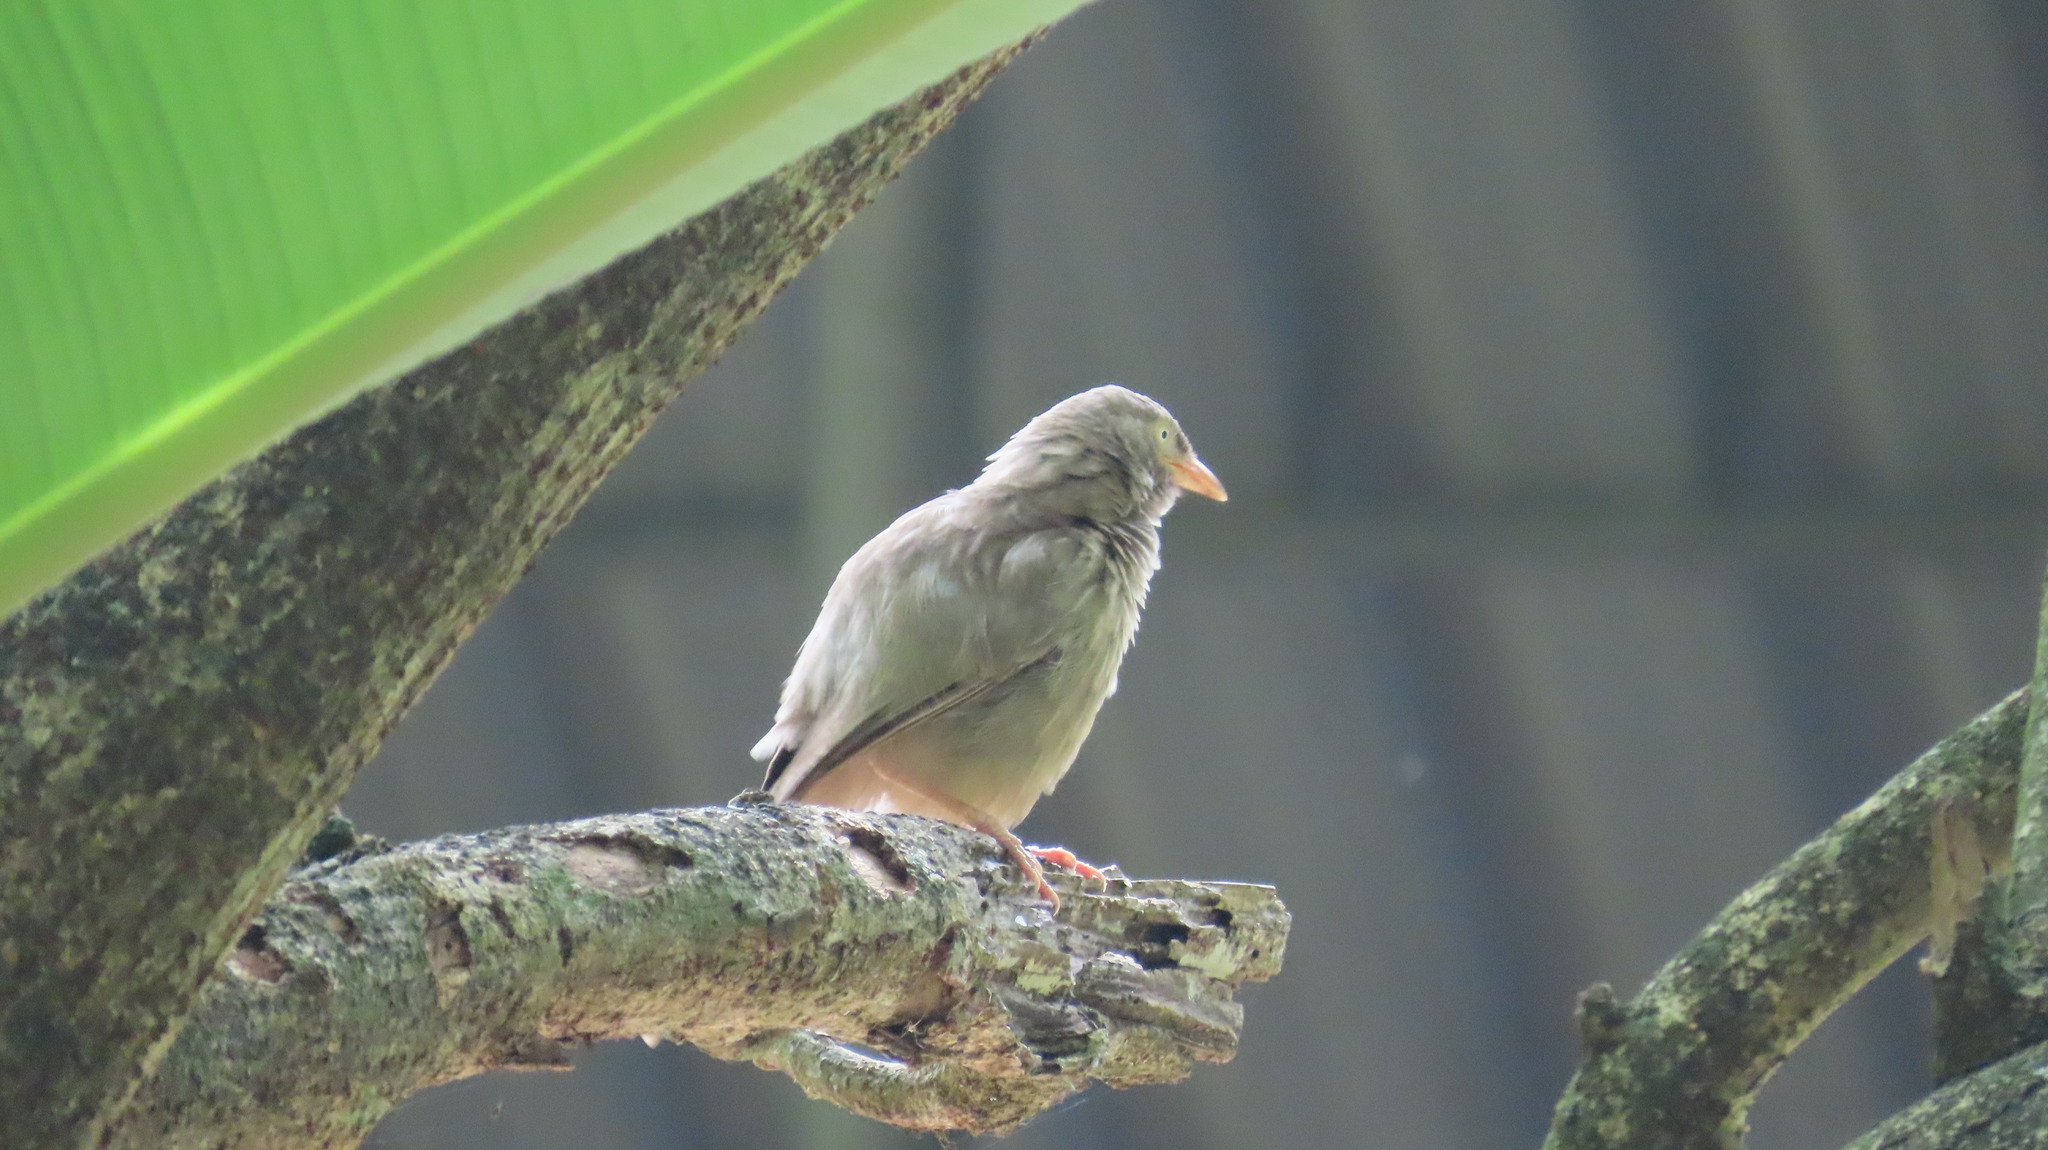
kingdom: Animalia
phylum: Chordata
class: Aves
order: Passeriformes
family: Leiothrichidae
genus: Turdoides
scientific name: Turdoides striata
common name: Jungle babbler
